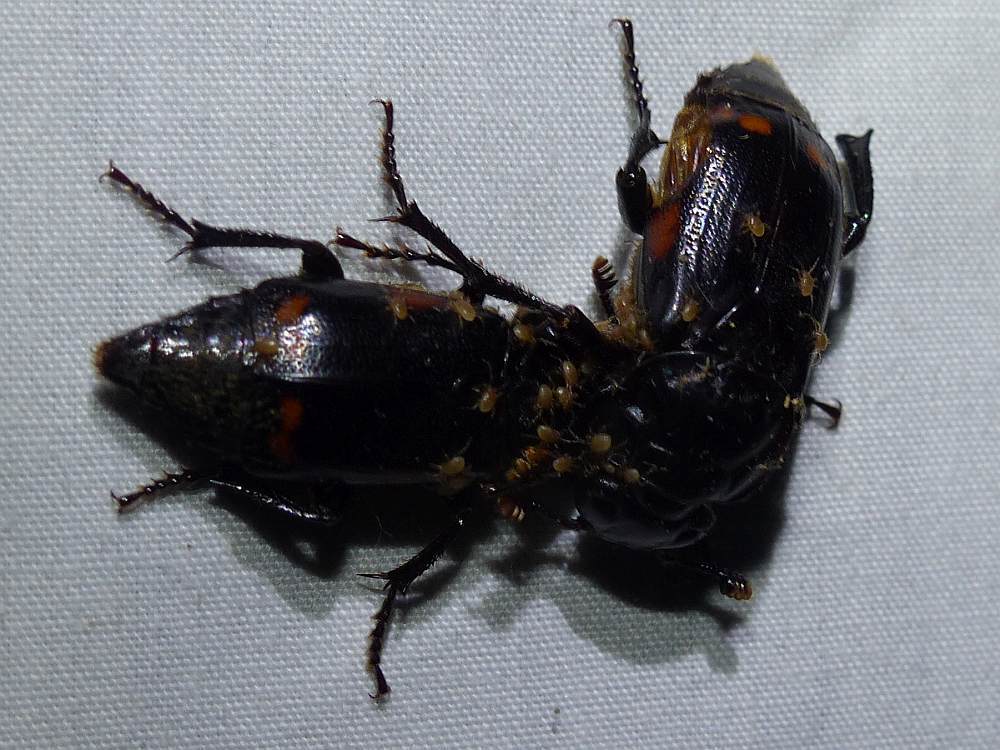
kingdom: Animalia
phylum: Arthropoda
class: Insecta
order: Coleoptera
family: Staphylinidae
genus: Nicrophorus
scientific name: Nicrophorus pustulatus
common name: Pustulated carrion beetle
